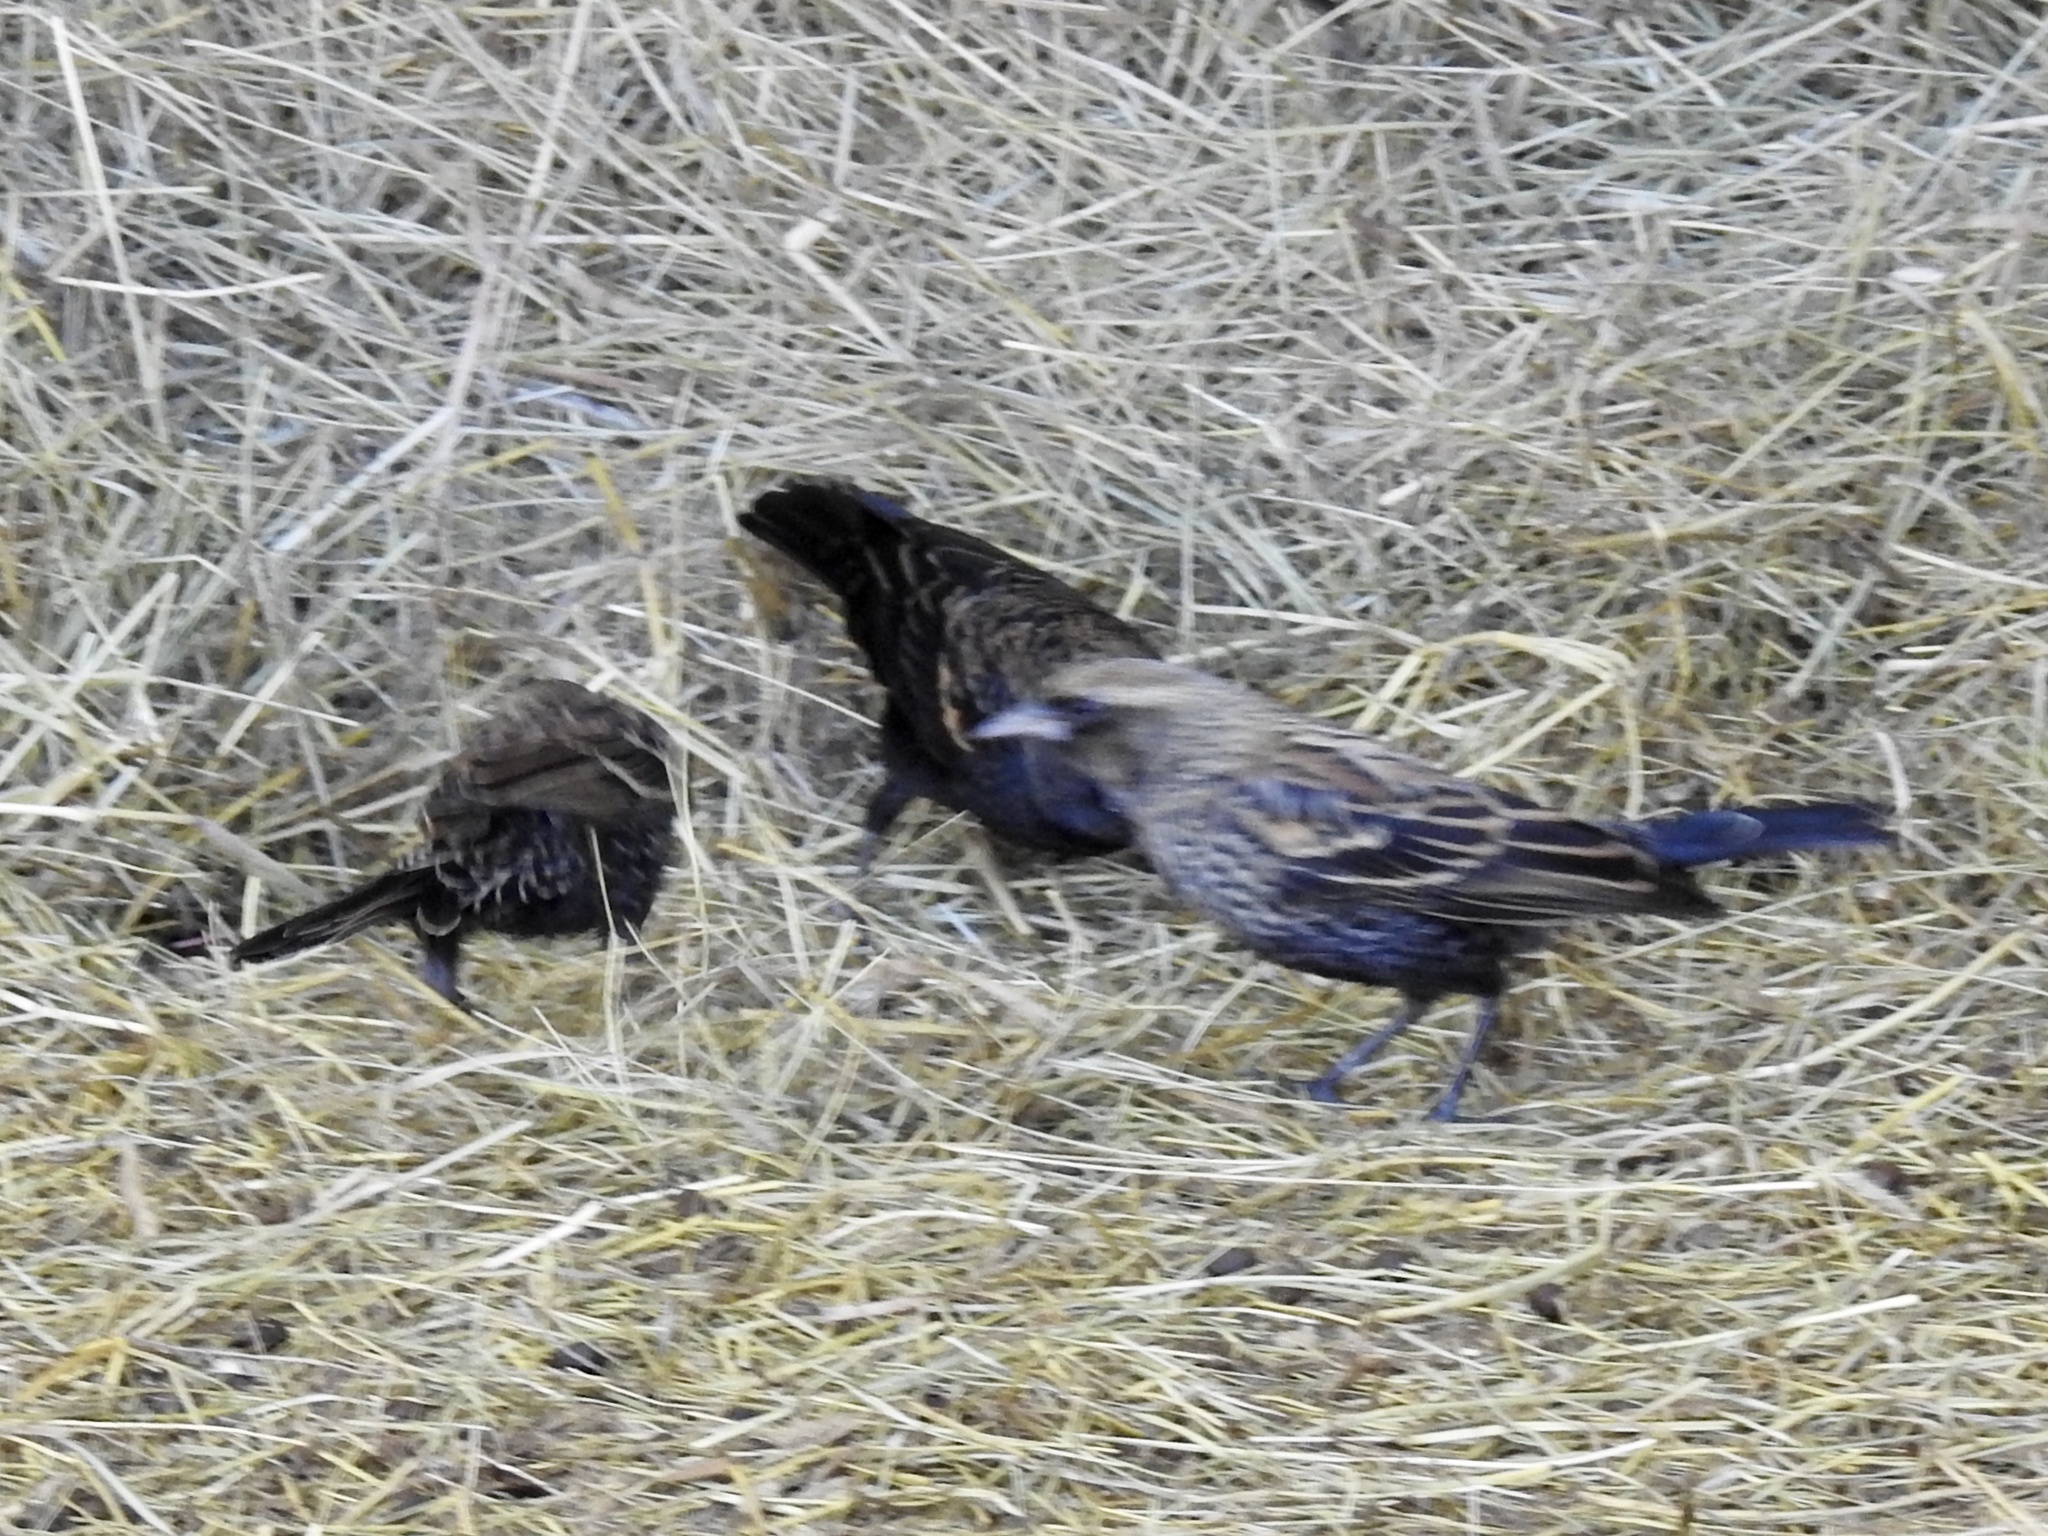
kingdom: Animalia
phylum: Chordata
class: Aves
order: Passeriformes
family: Icteridae
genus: Agelaius
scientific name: Agelaius phoeniceus
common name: Red-winged blackbird
